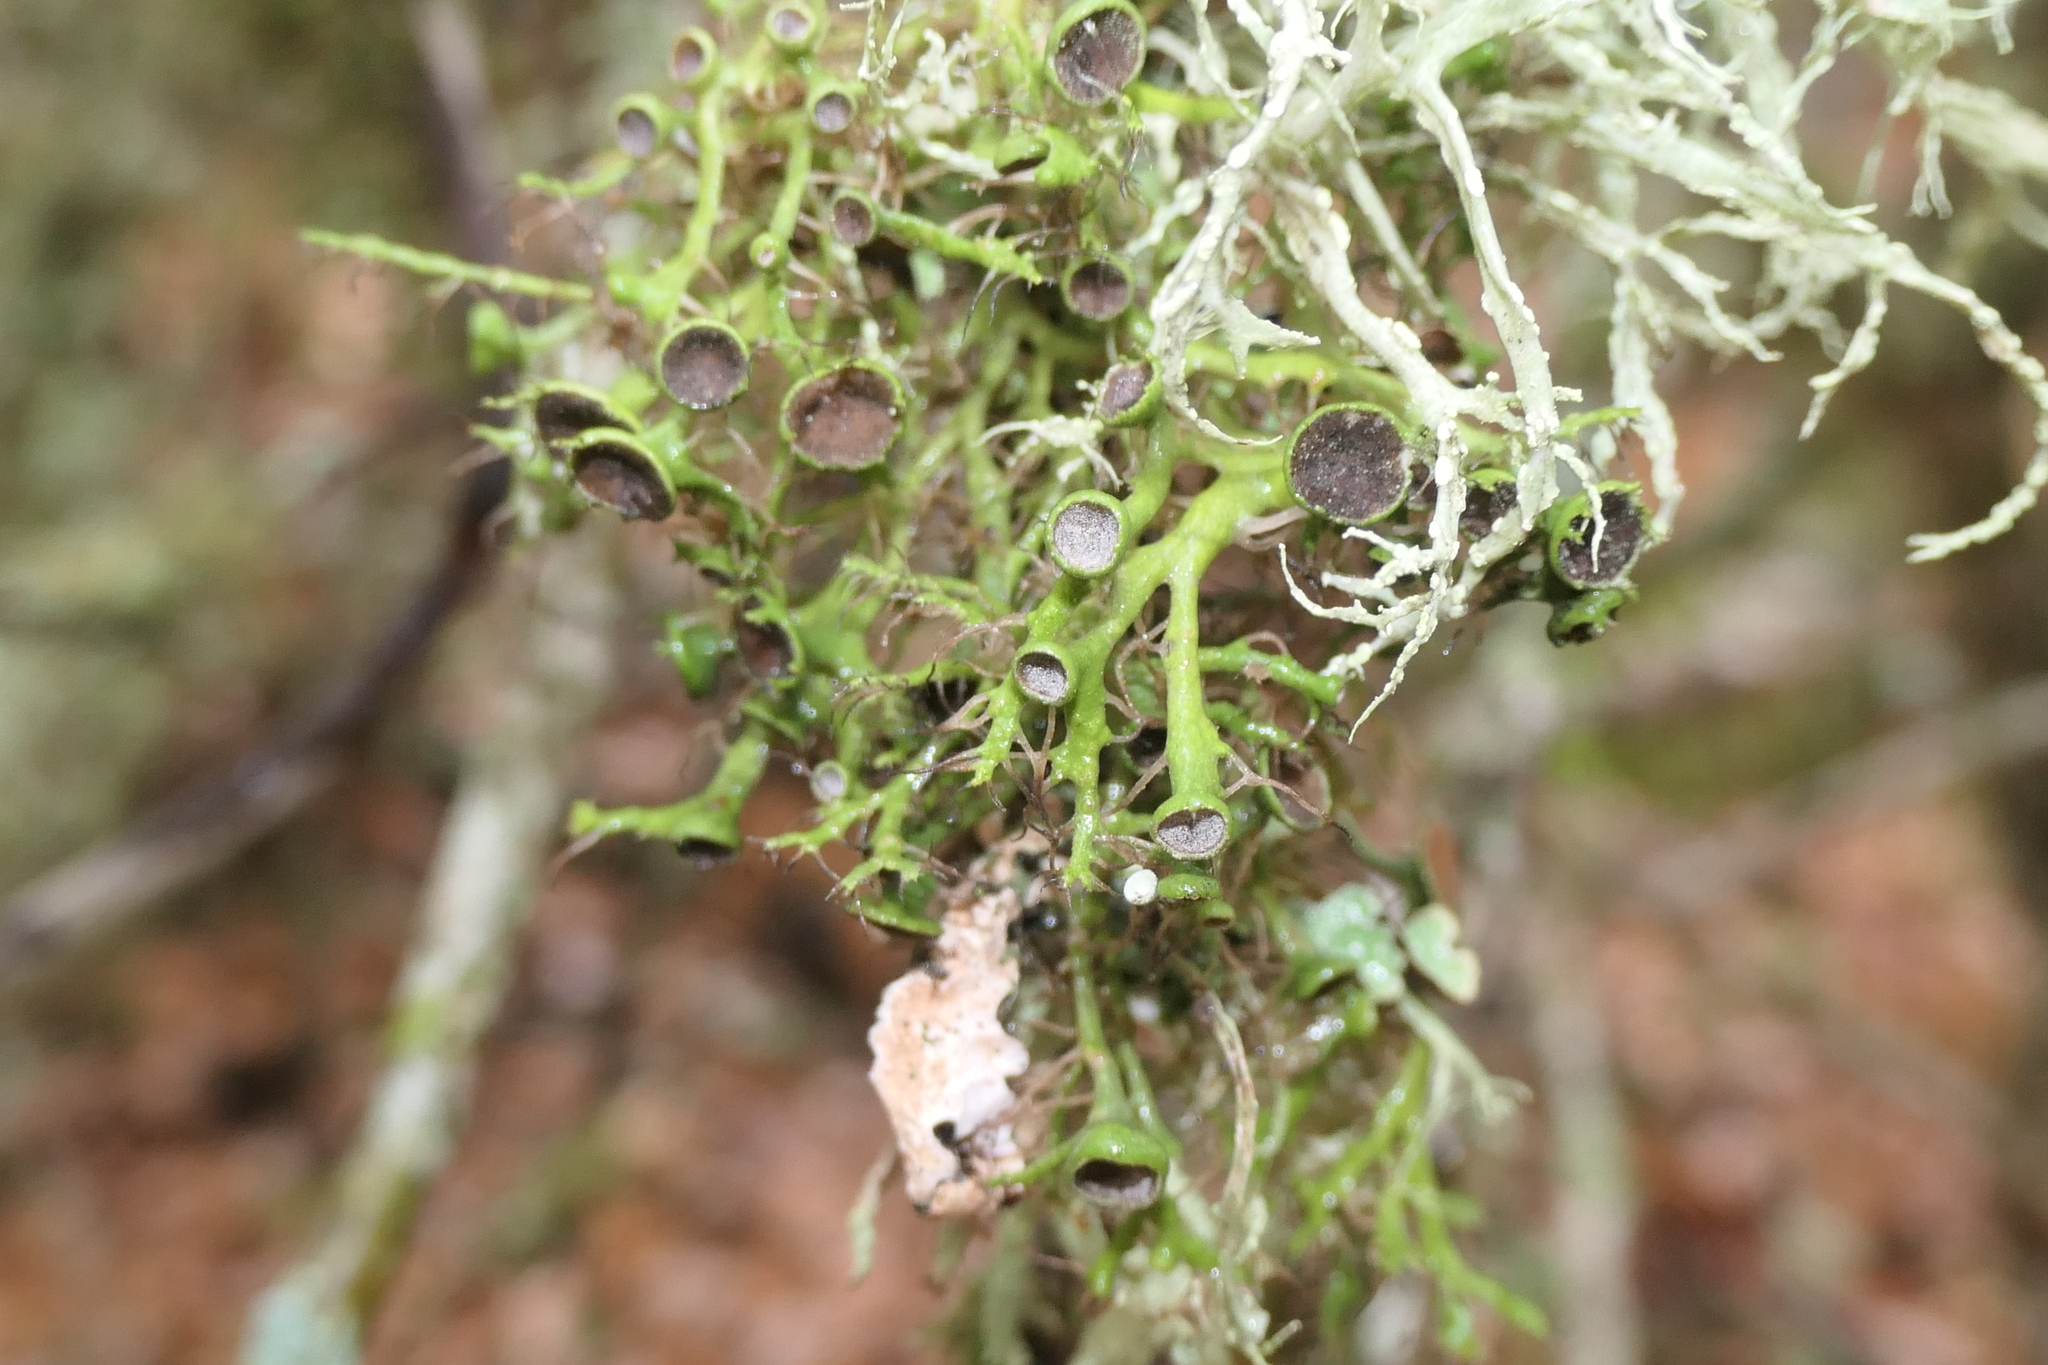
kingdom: Fungi
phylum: Ascomycota
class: Lecanoromycetes
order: Caliciales
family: Physciaceae
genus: Anaptychia
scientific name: Anaptychia ciliaris
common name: Great ciliated lichen
